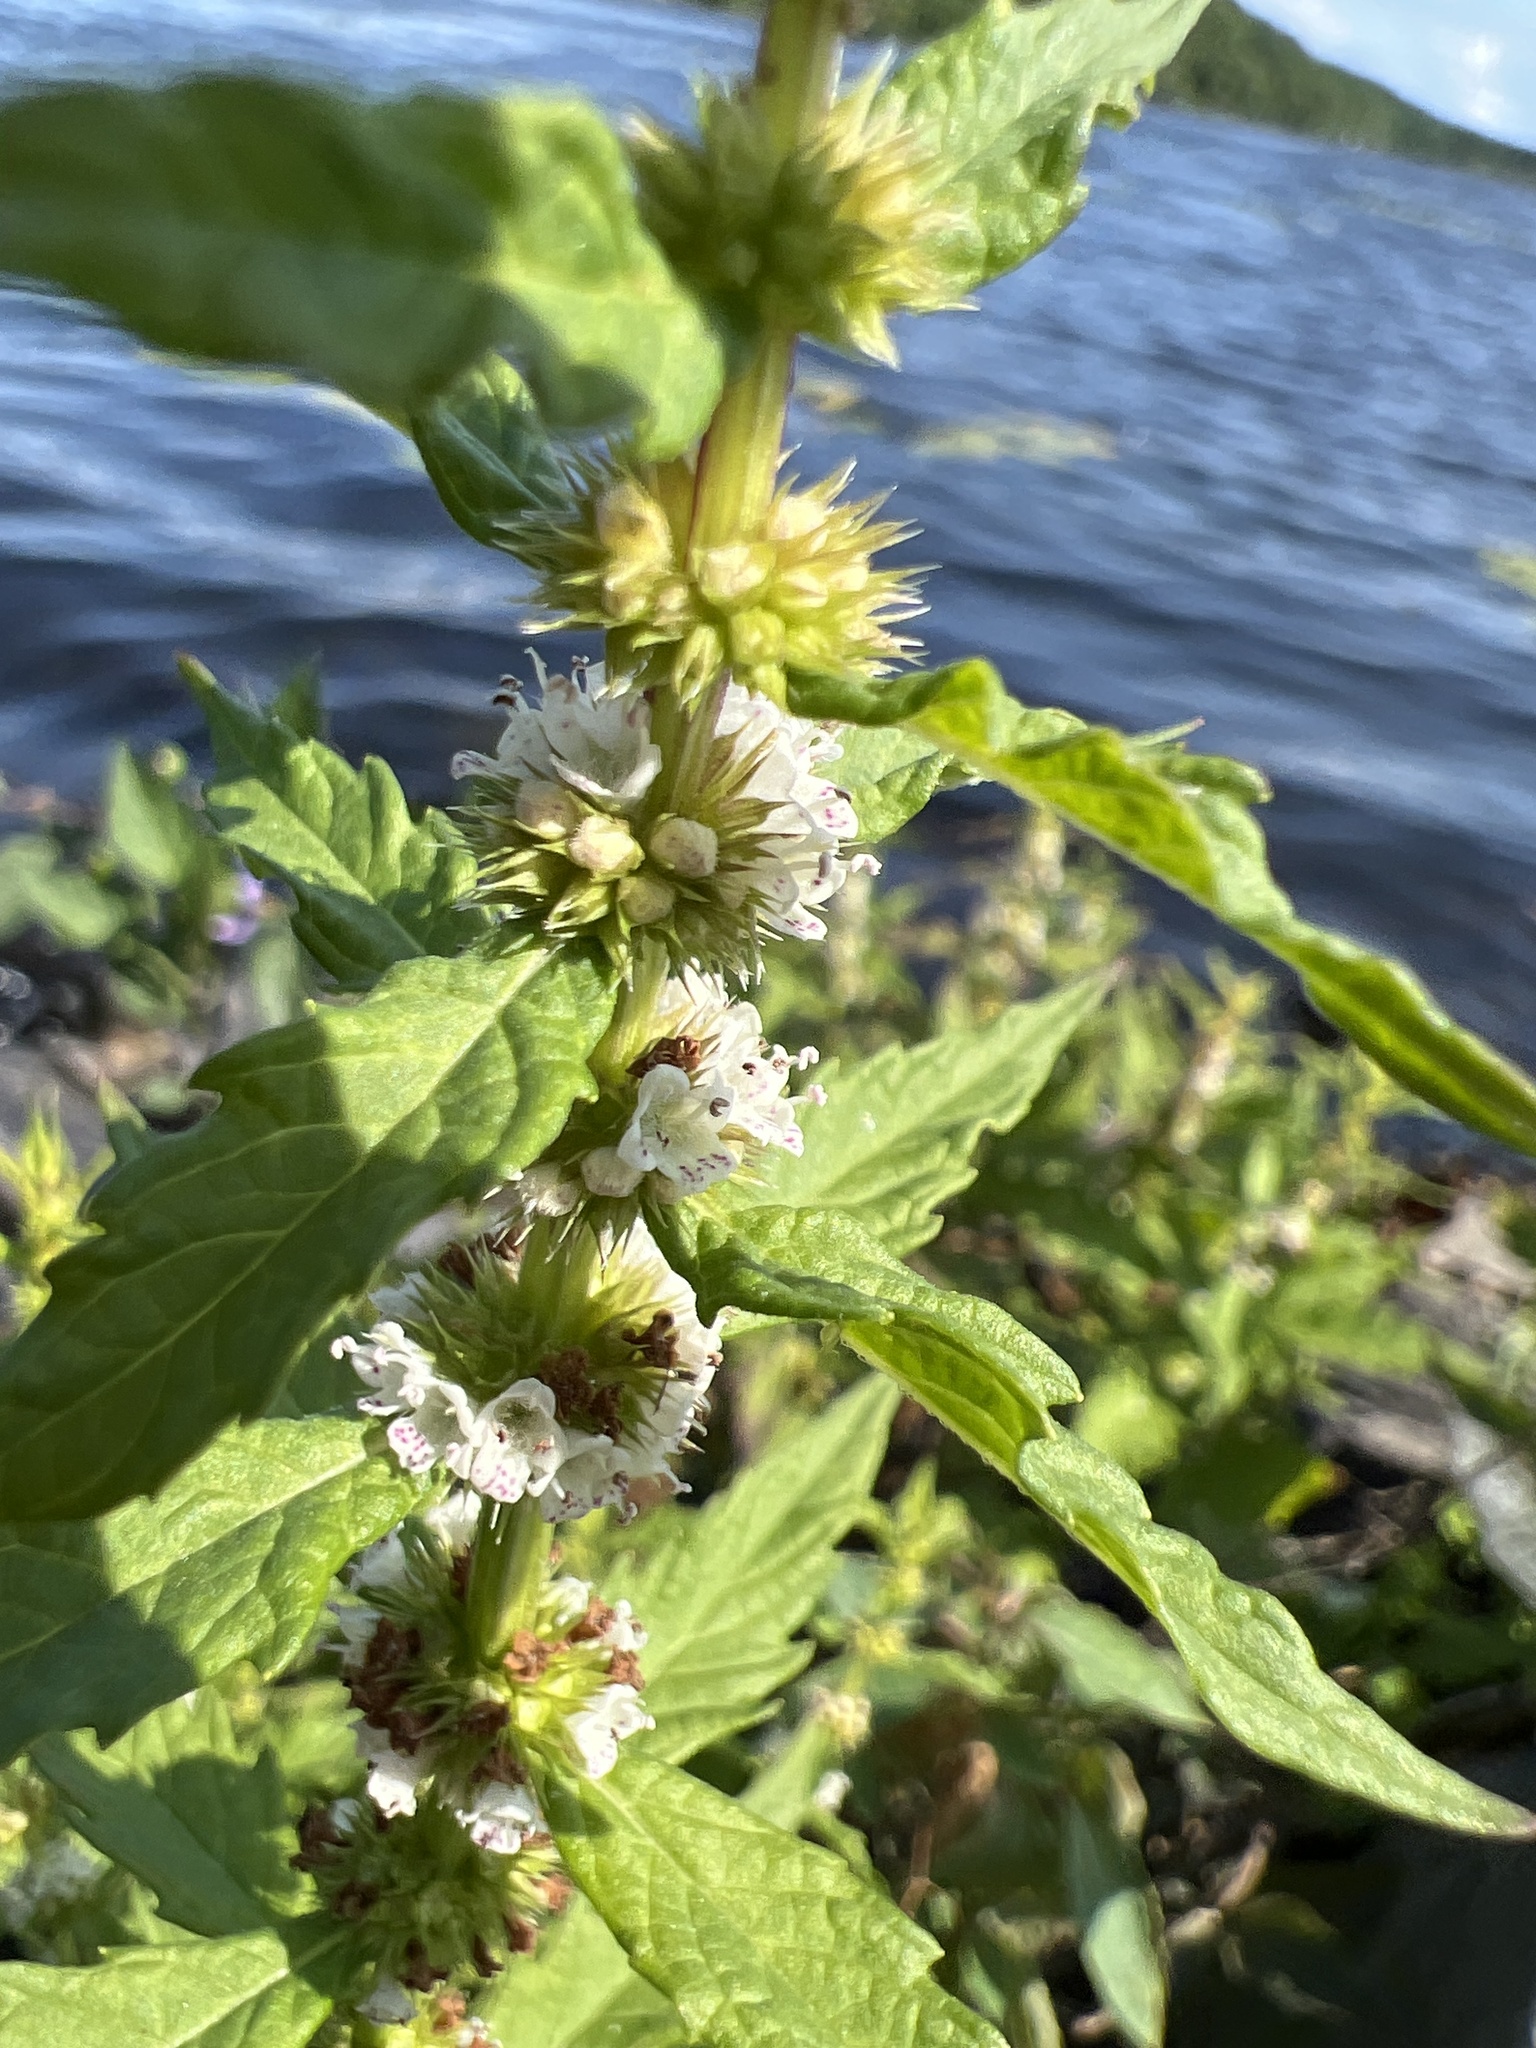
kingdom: Plantae
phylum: Tracheophyta
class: Magnoliopsida
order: Lamiales
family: Lamiaceae
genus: Lycopus
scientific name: Lycopus americanus
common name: American bugleweed
